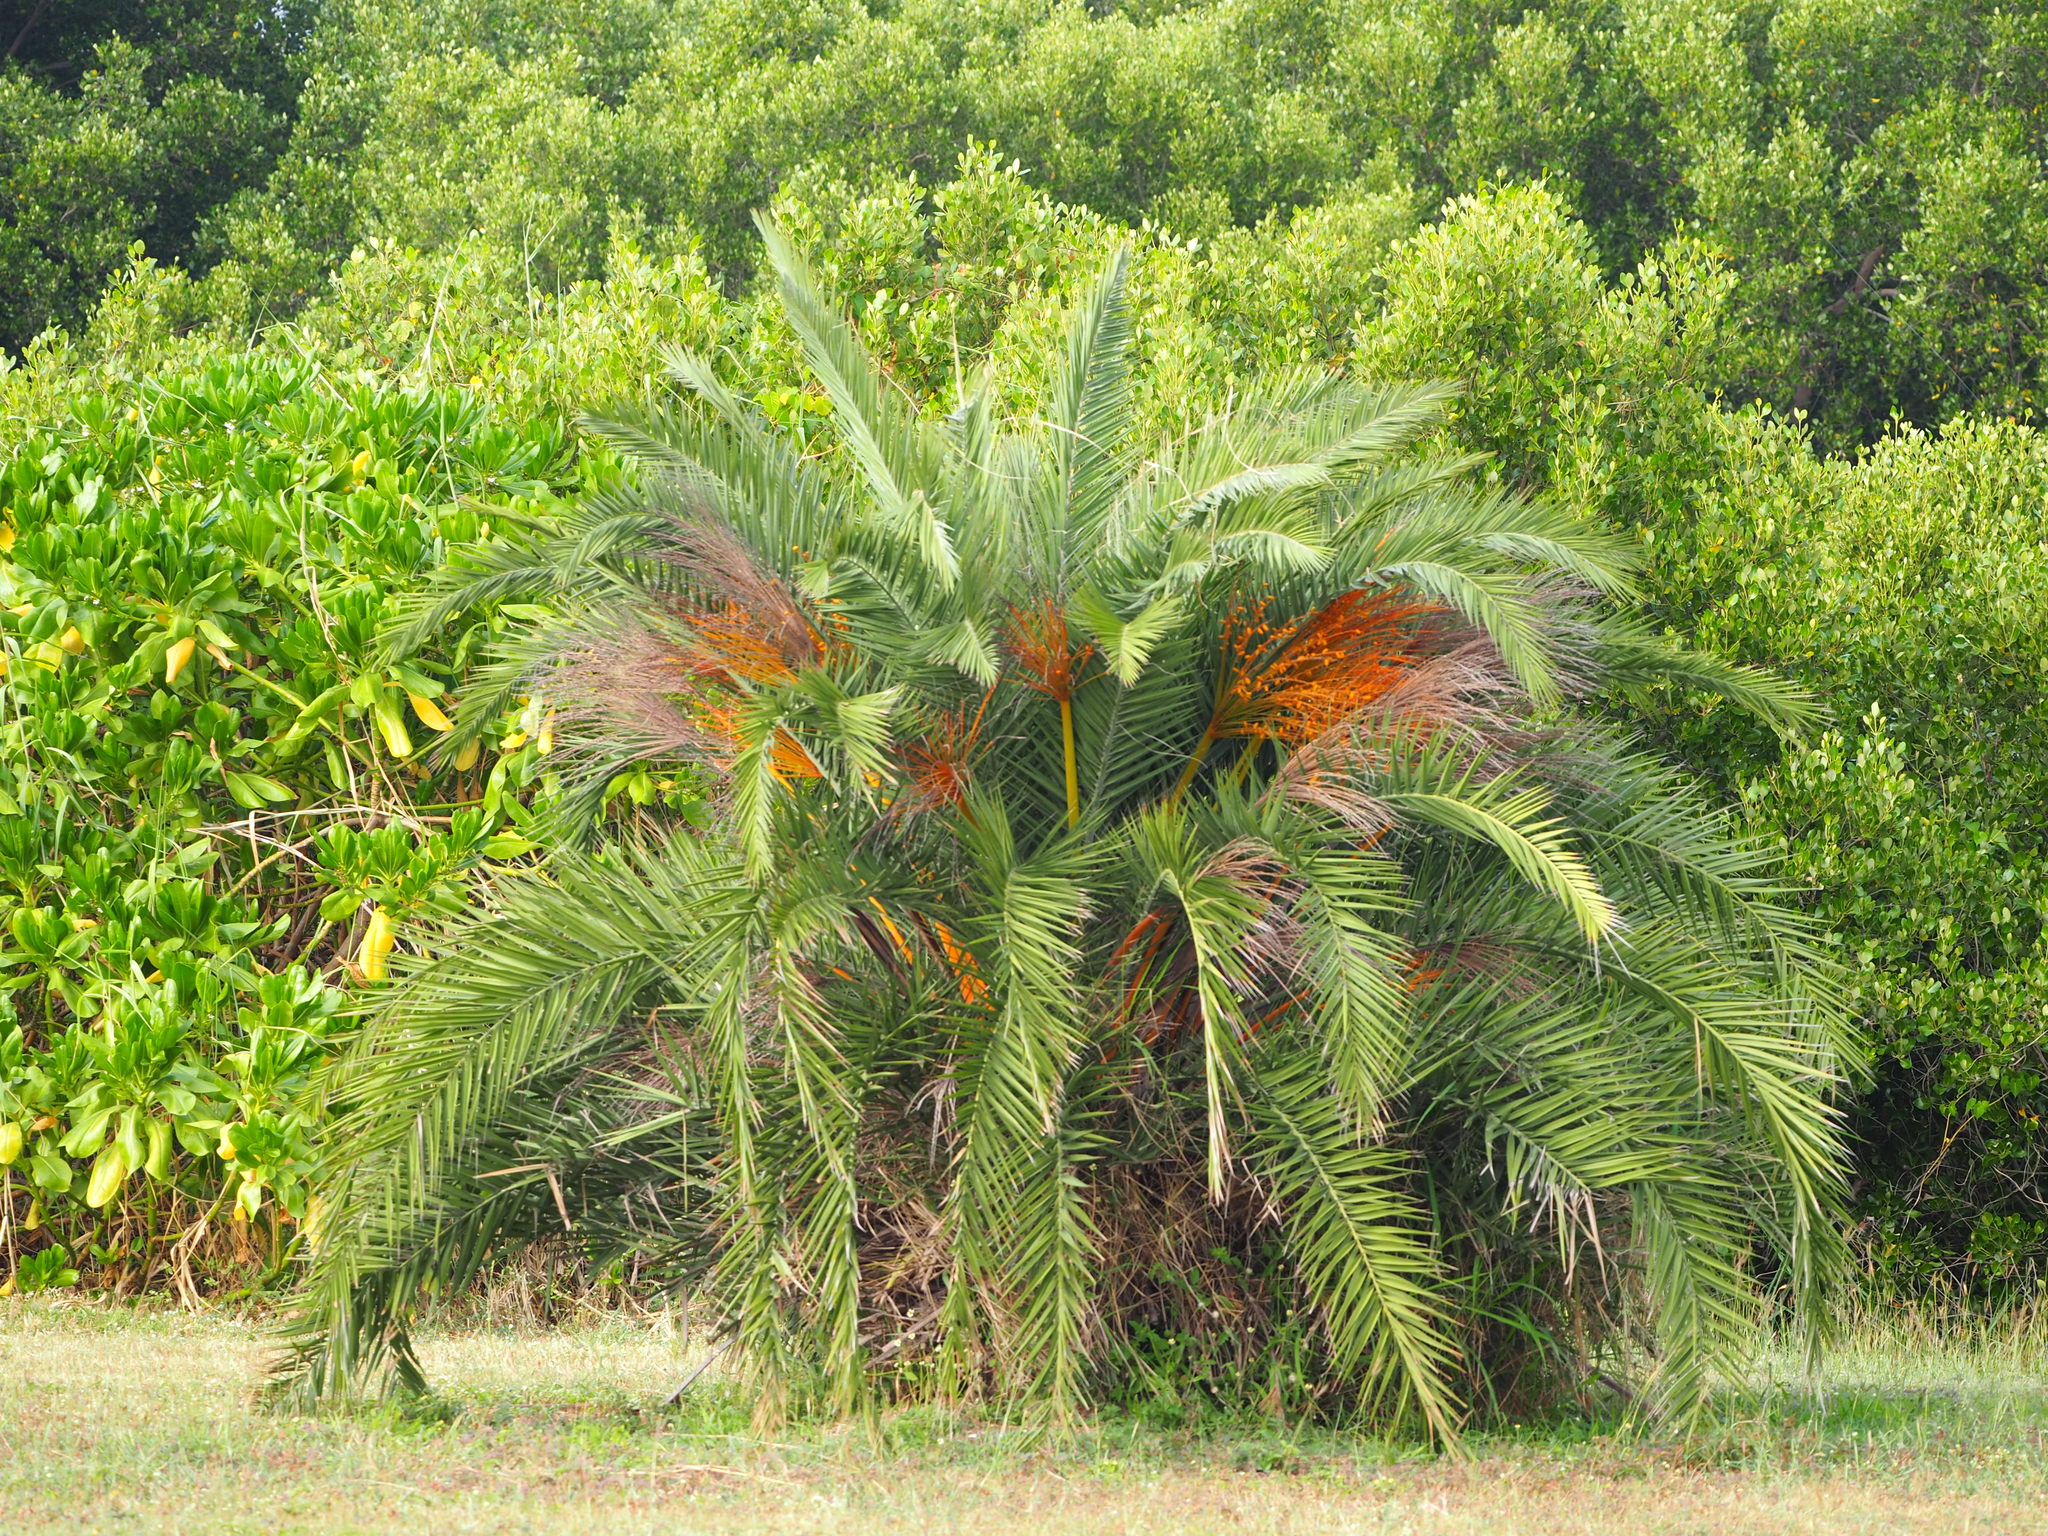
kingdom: Plantae
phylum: Tracheophyta
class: Liliopsida
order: Arecales
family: Arecaceae
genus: Phoenix
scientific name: Phoenix loureiroi
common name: Loureiro's palm
